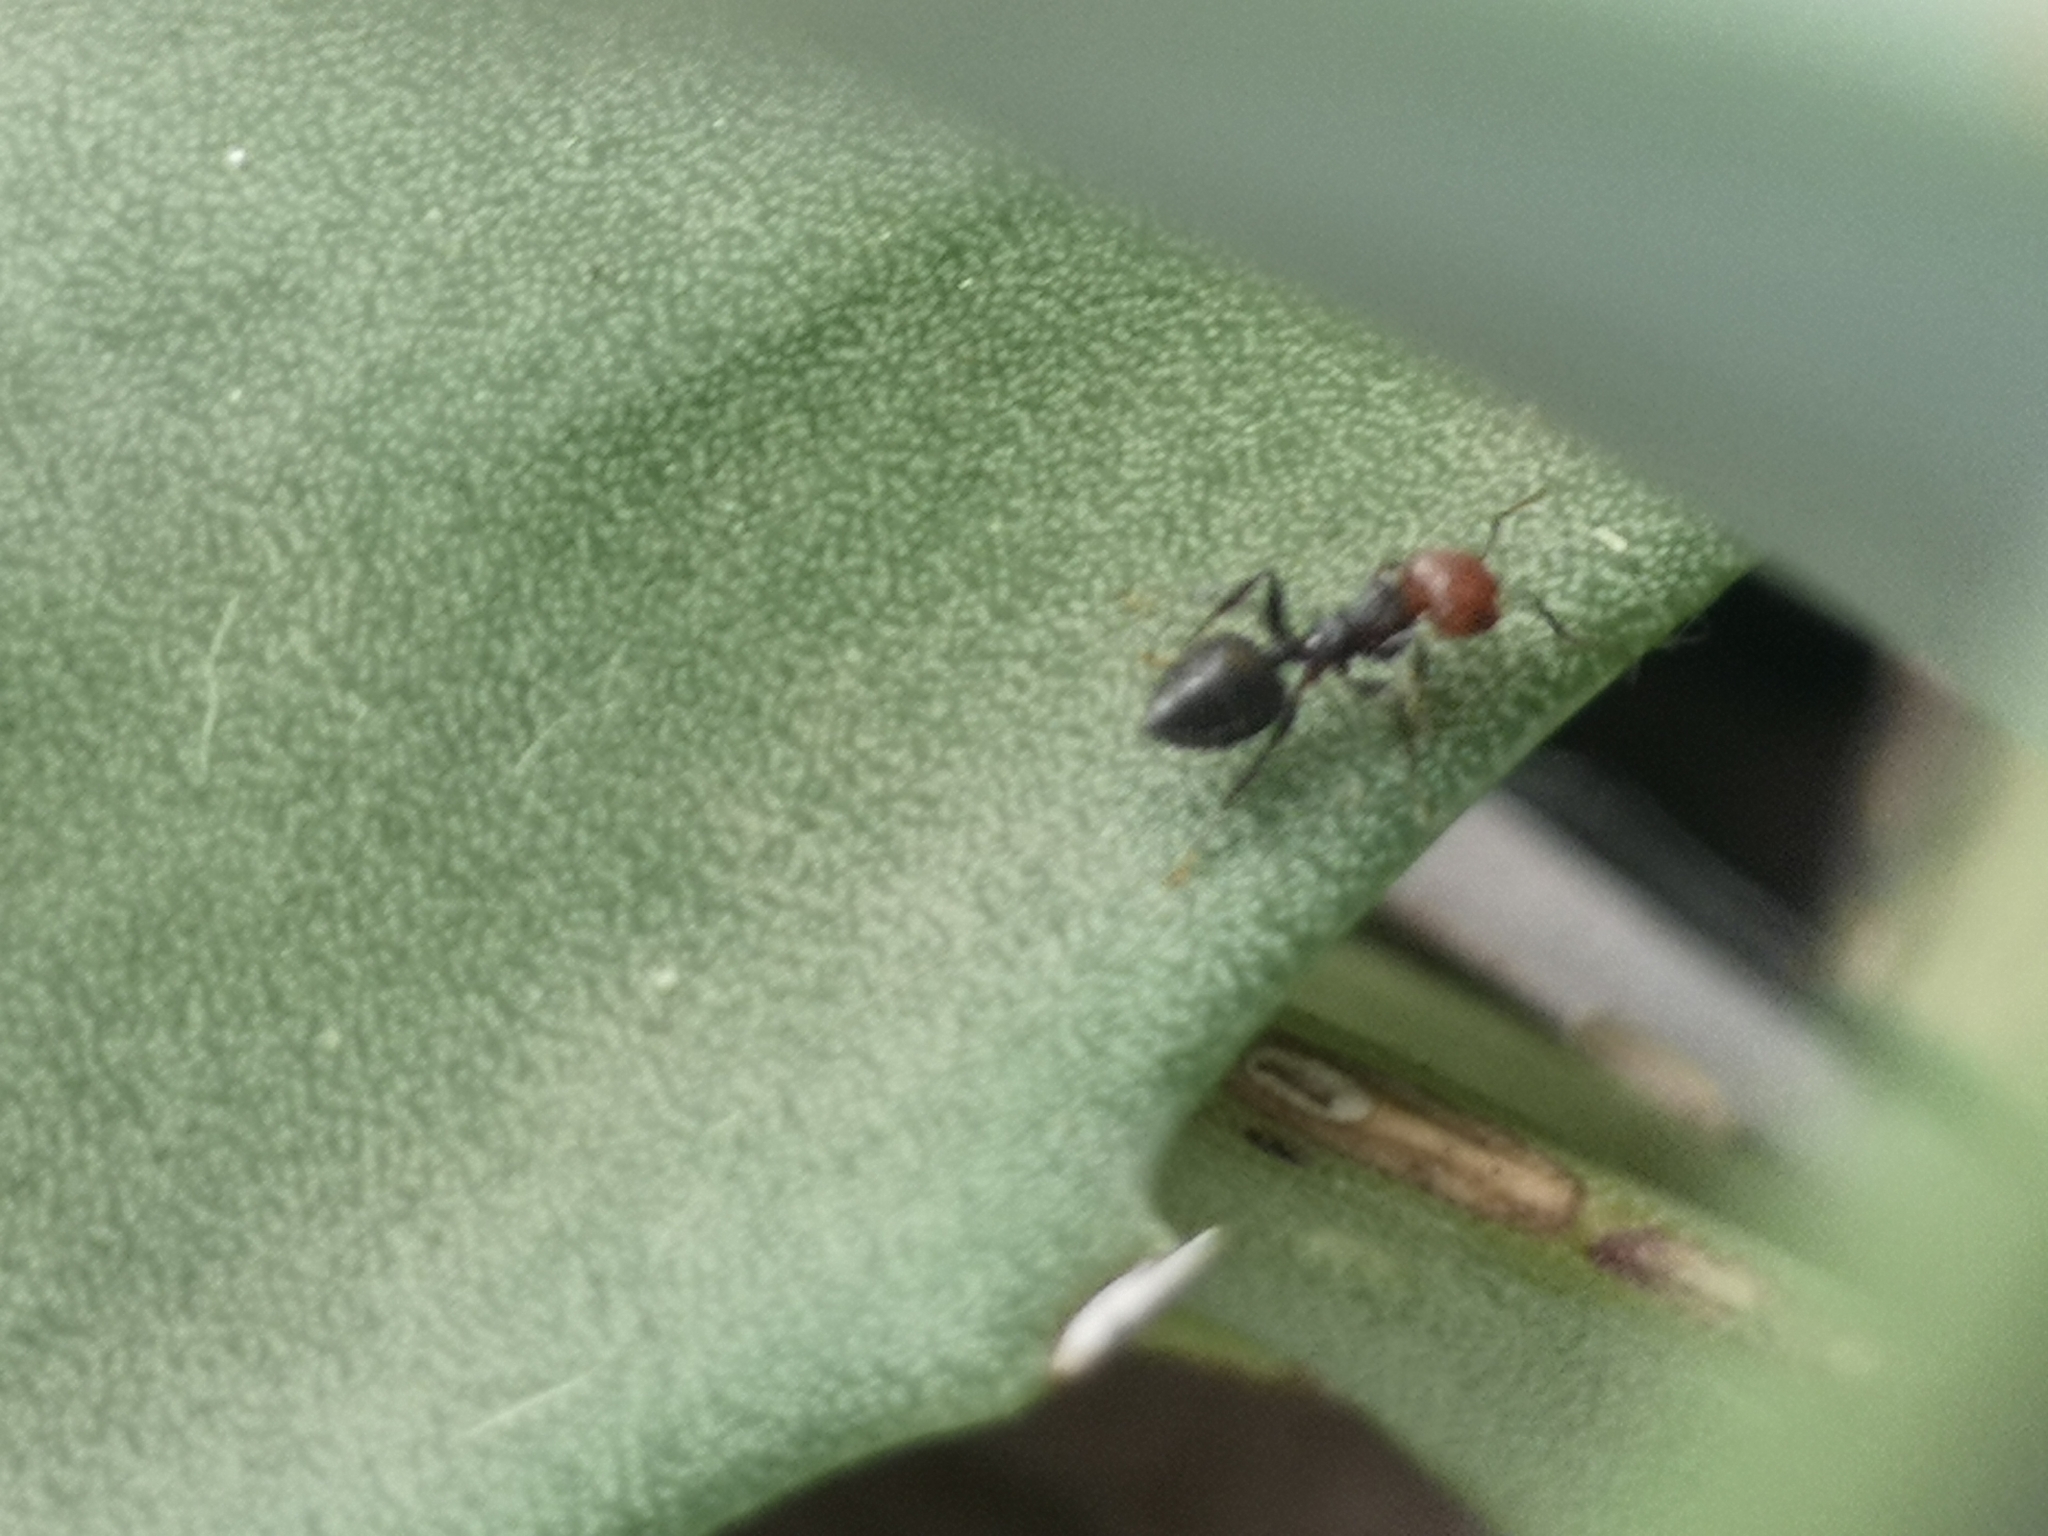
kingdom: Animalia
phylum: Arthropoda
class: Insecta
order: Hymenoptera
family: Formicidae
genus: Crematogaster
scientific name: Crematogaster scutellaris
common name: Fourmi du liège
